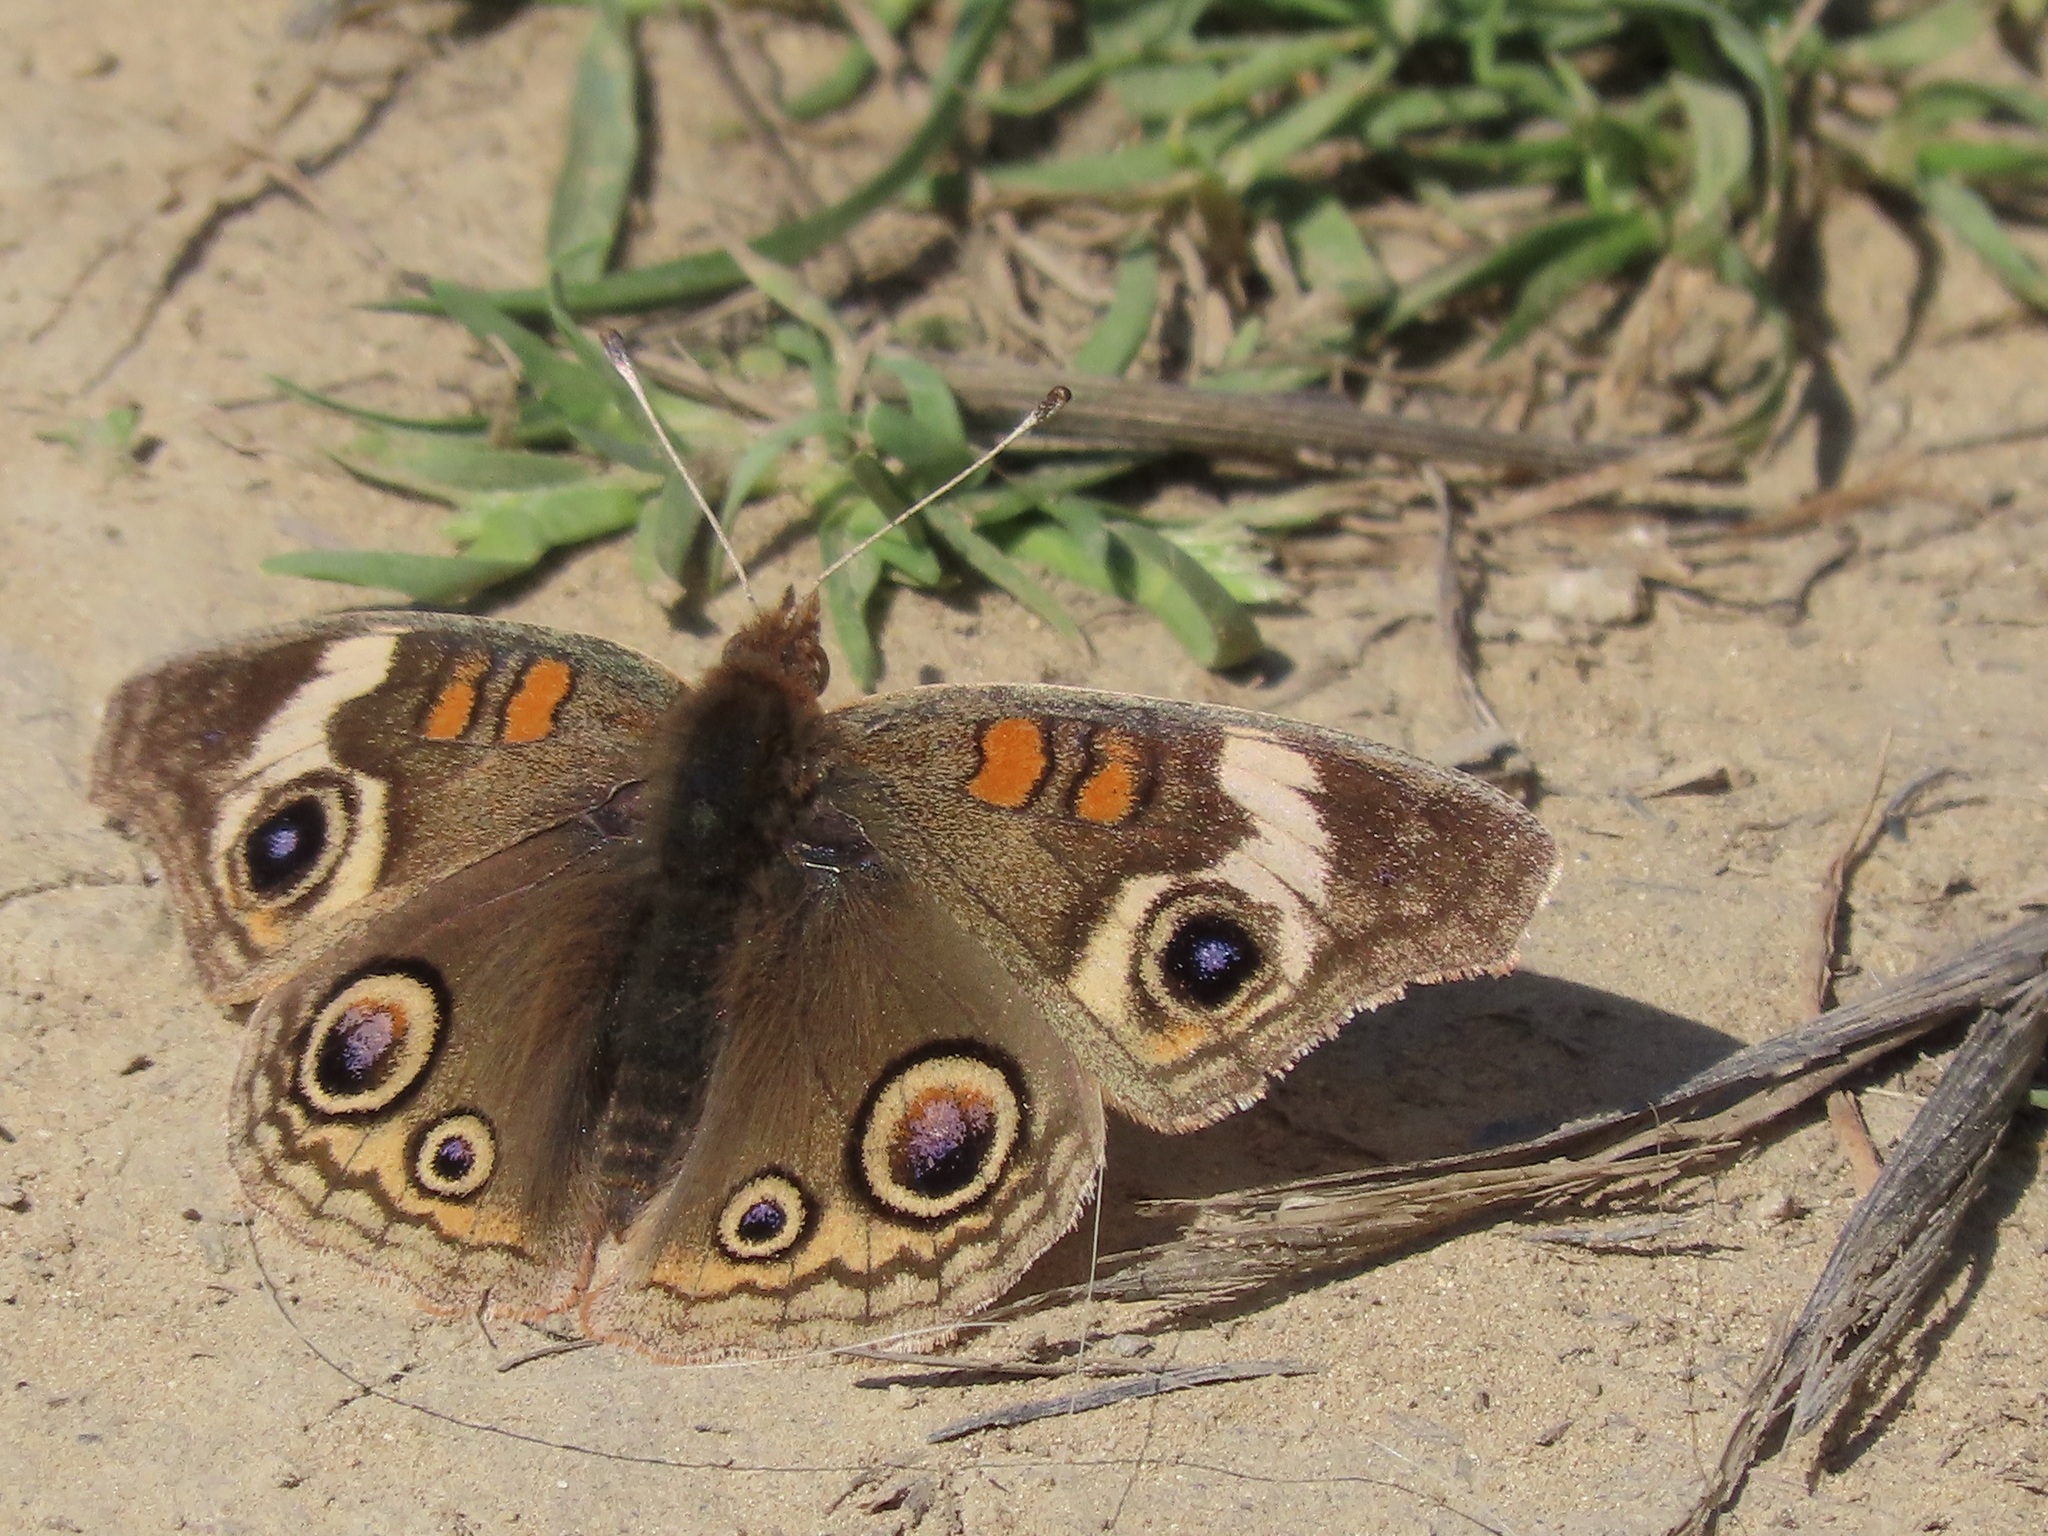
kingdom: Animalia
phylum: Arthropoda
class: Insecta
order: Lepidoptera
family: Nymphalidae
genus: Junonia
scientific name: Junonia grisea
